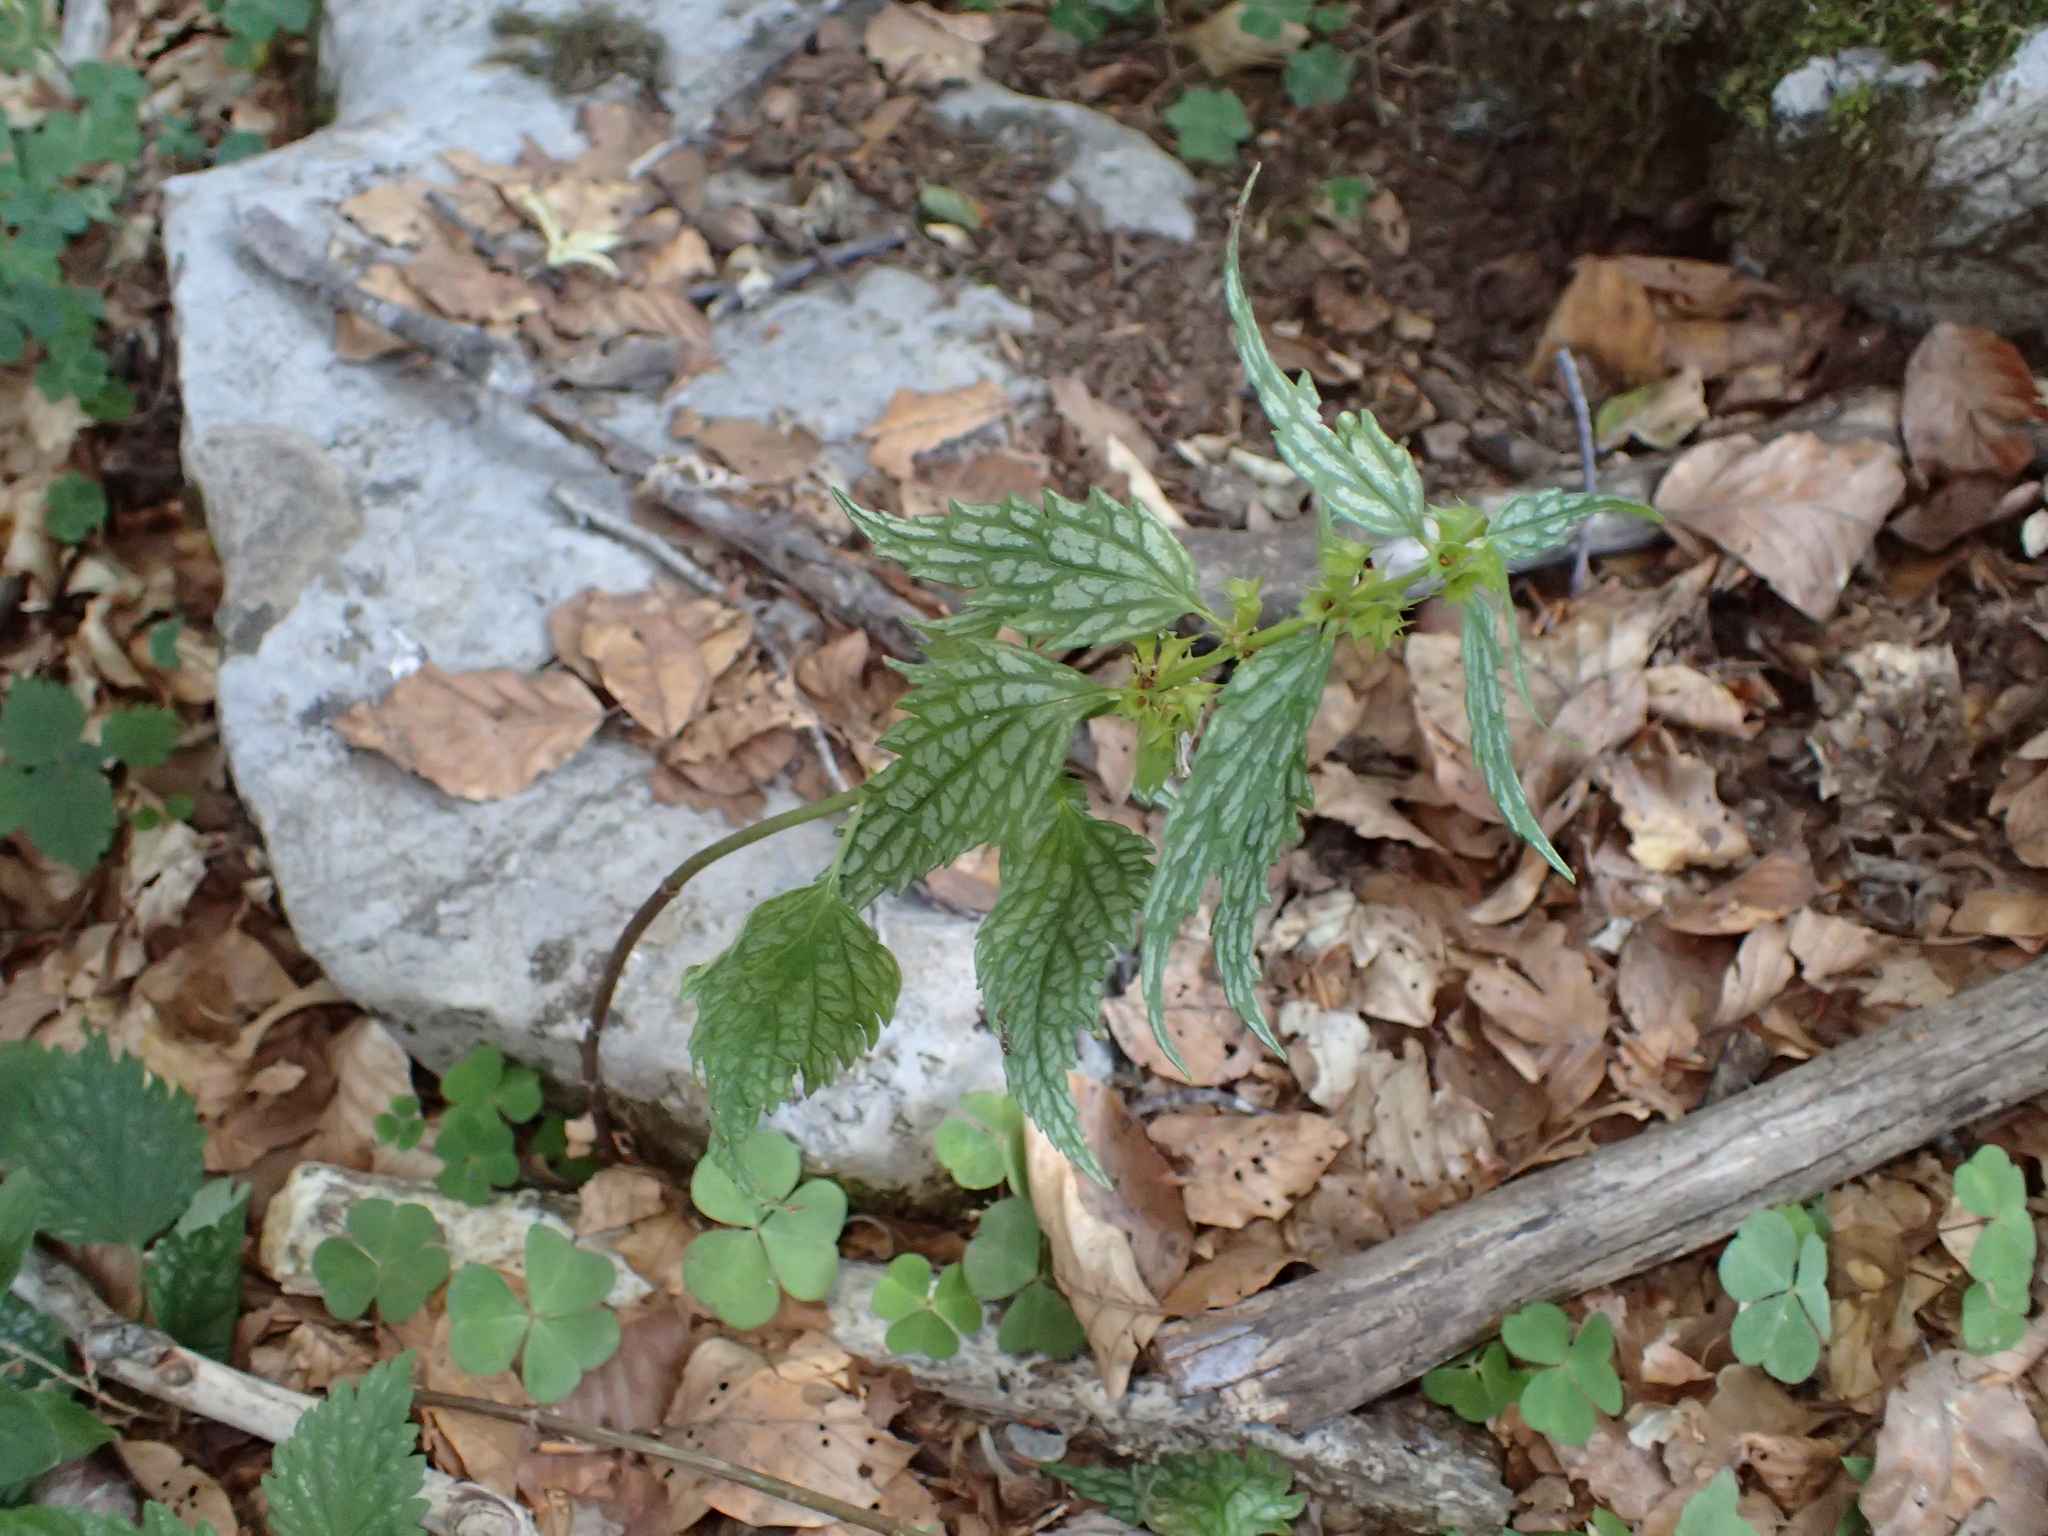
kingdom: Plantae
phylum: Tracheophyta
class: Magnoliopsida
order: Lamiales
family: Lamiaceae
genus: Lamium
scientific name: Lamium galeobdolon
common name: Yellow archangel
